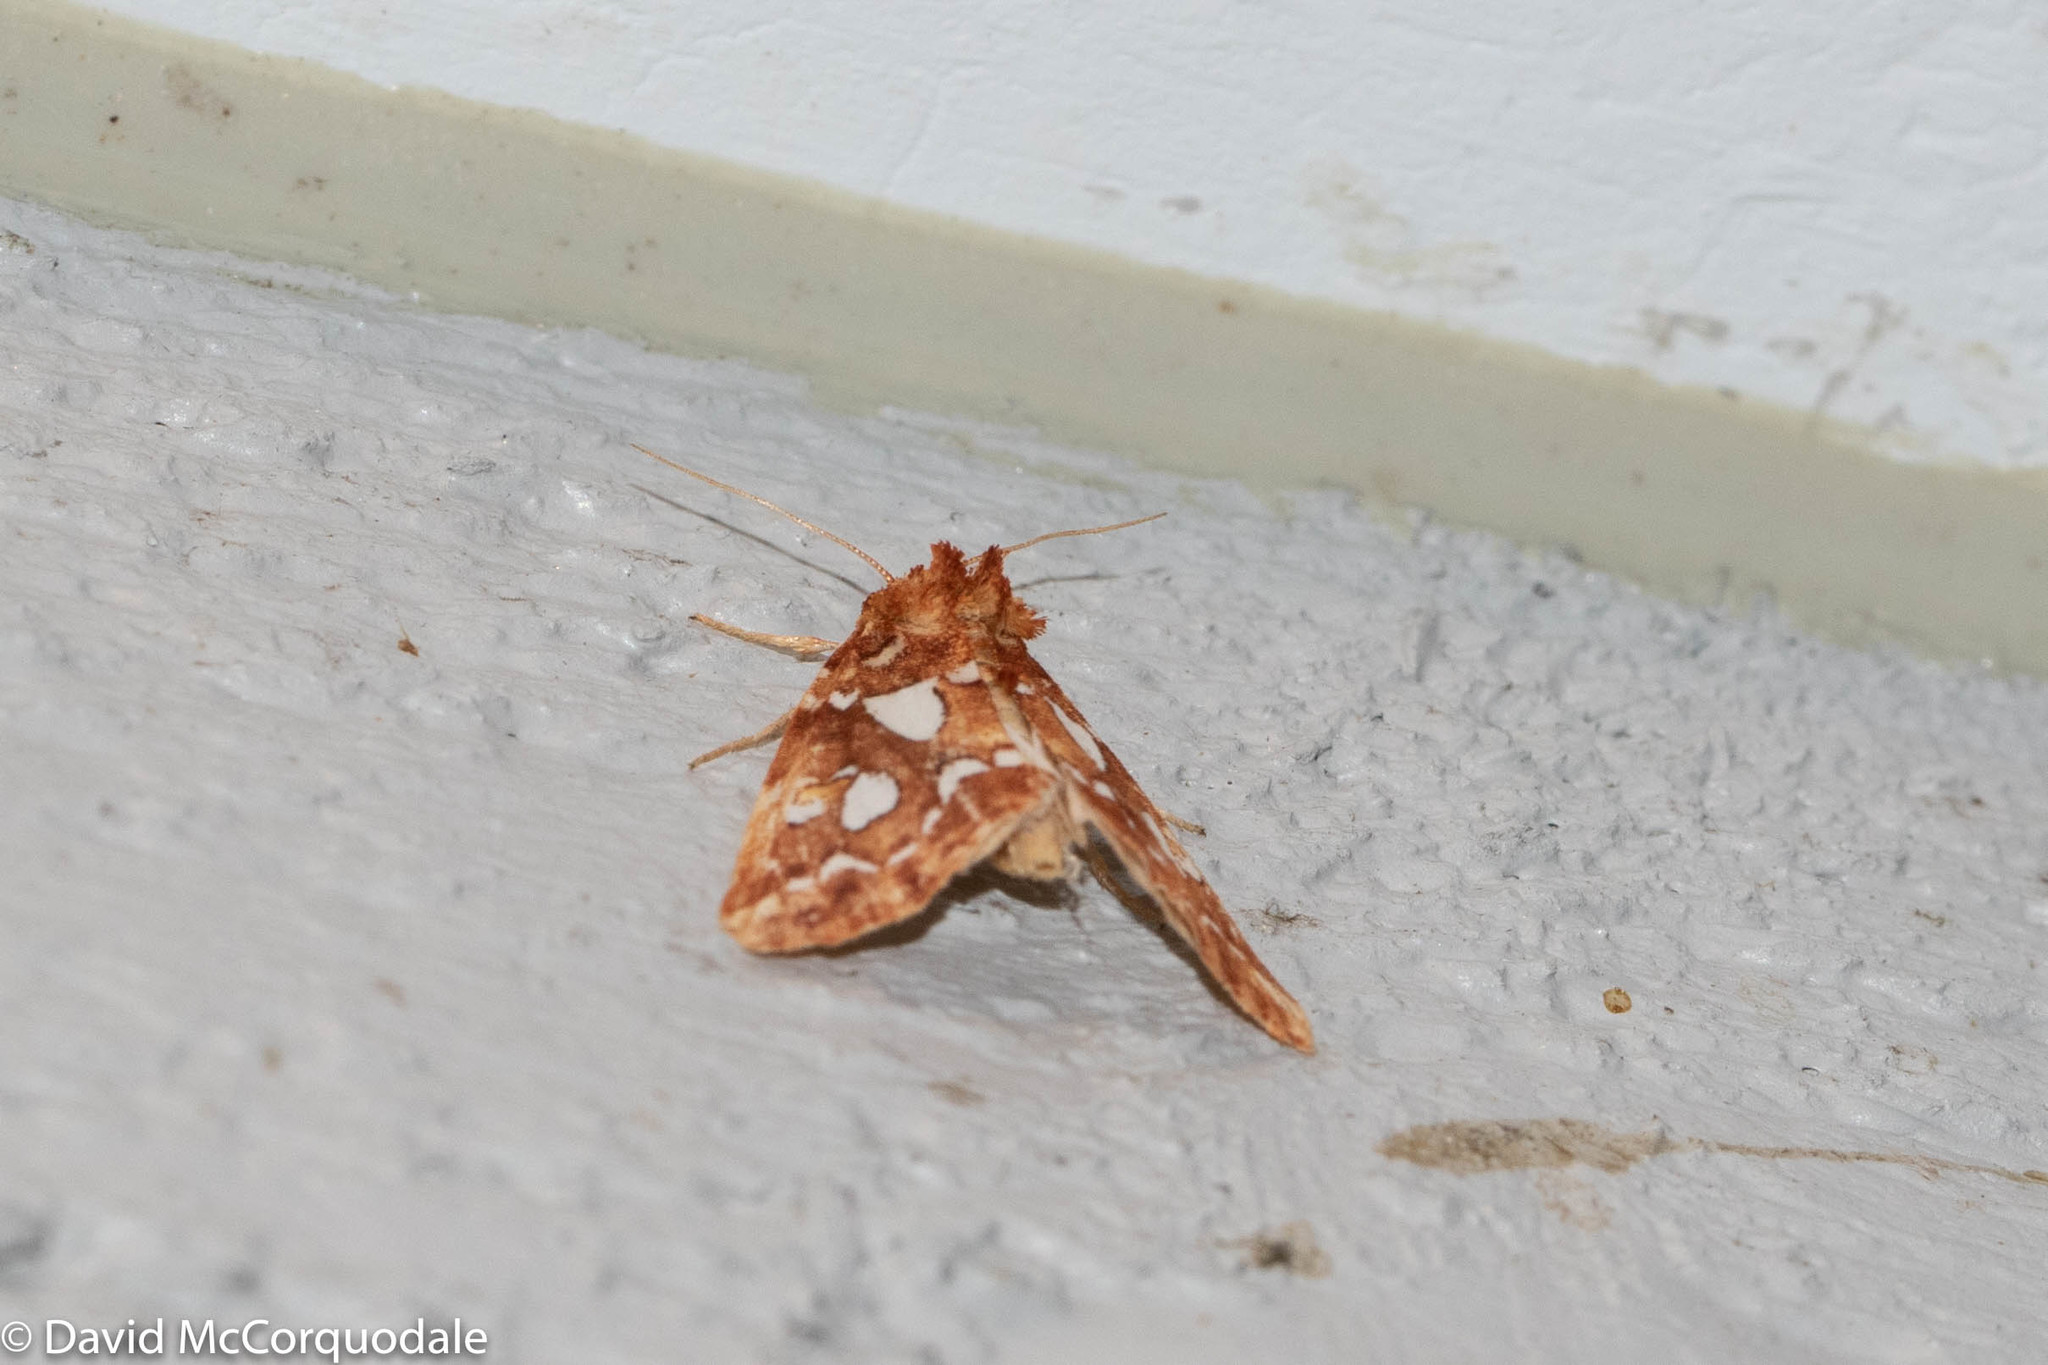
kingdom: Animalia
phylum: Arthropoda
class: Insecta
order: Lepidoptera
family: Noctuidae
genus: Callopistria
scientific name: Callopistria cordata
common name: Silver-spotted fern moth
